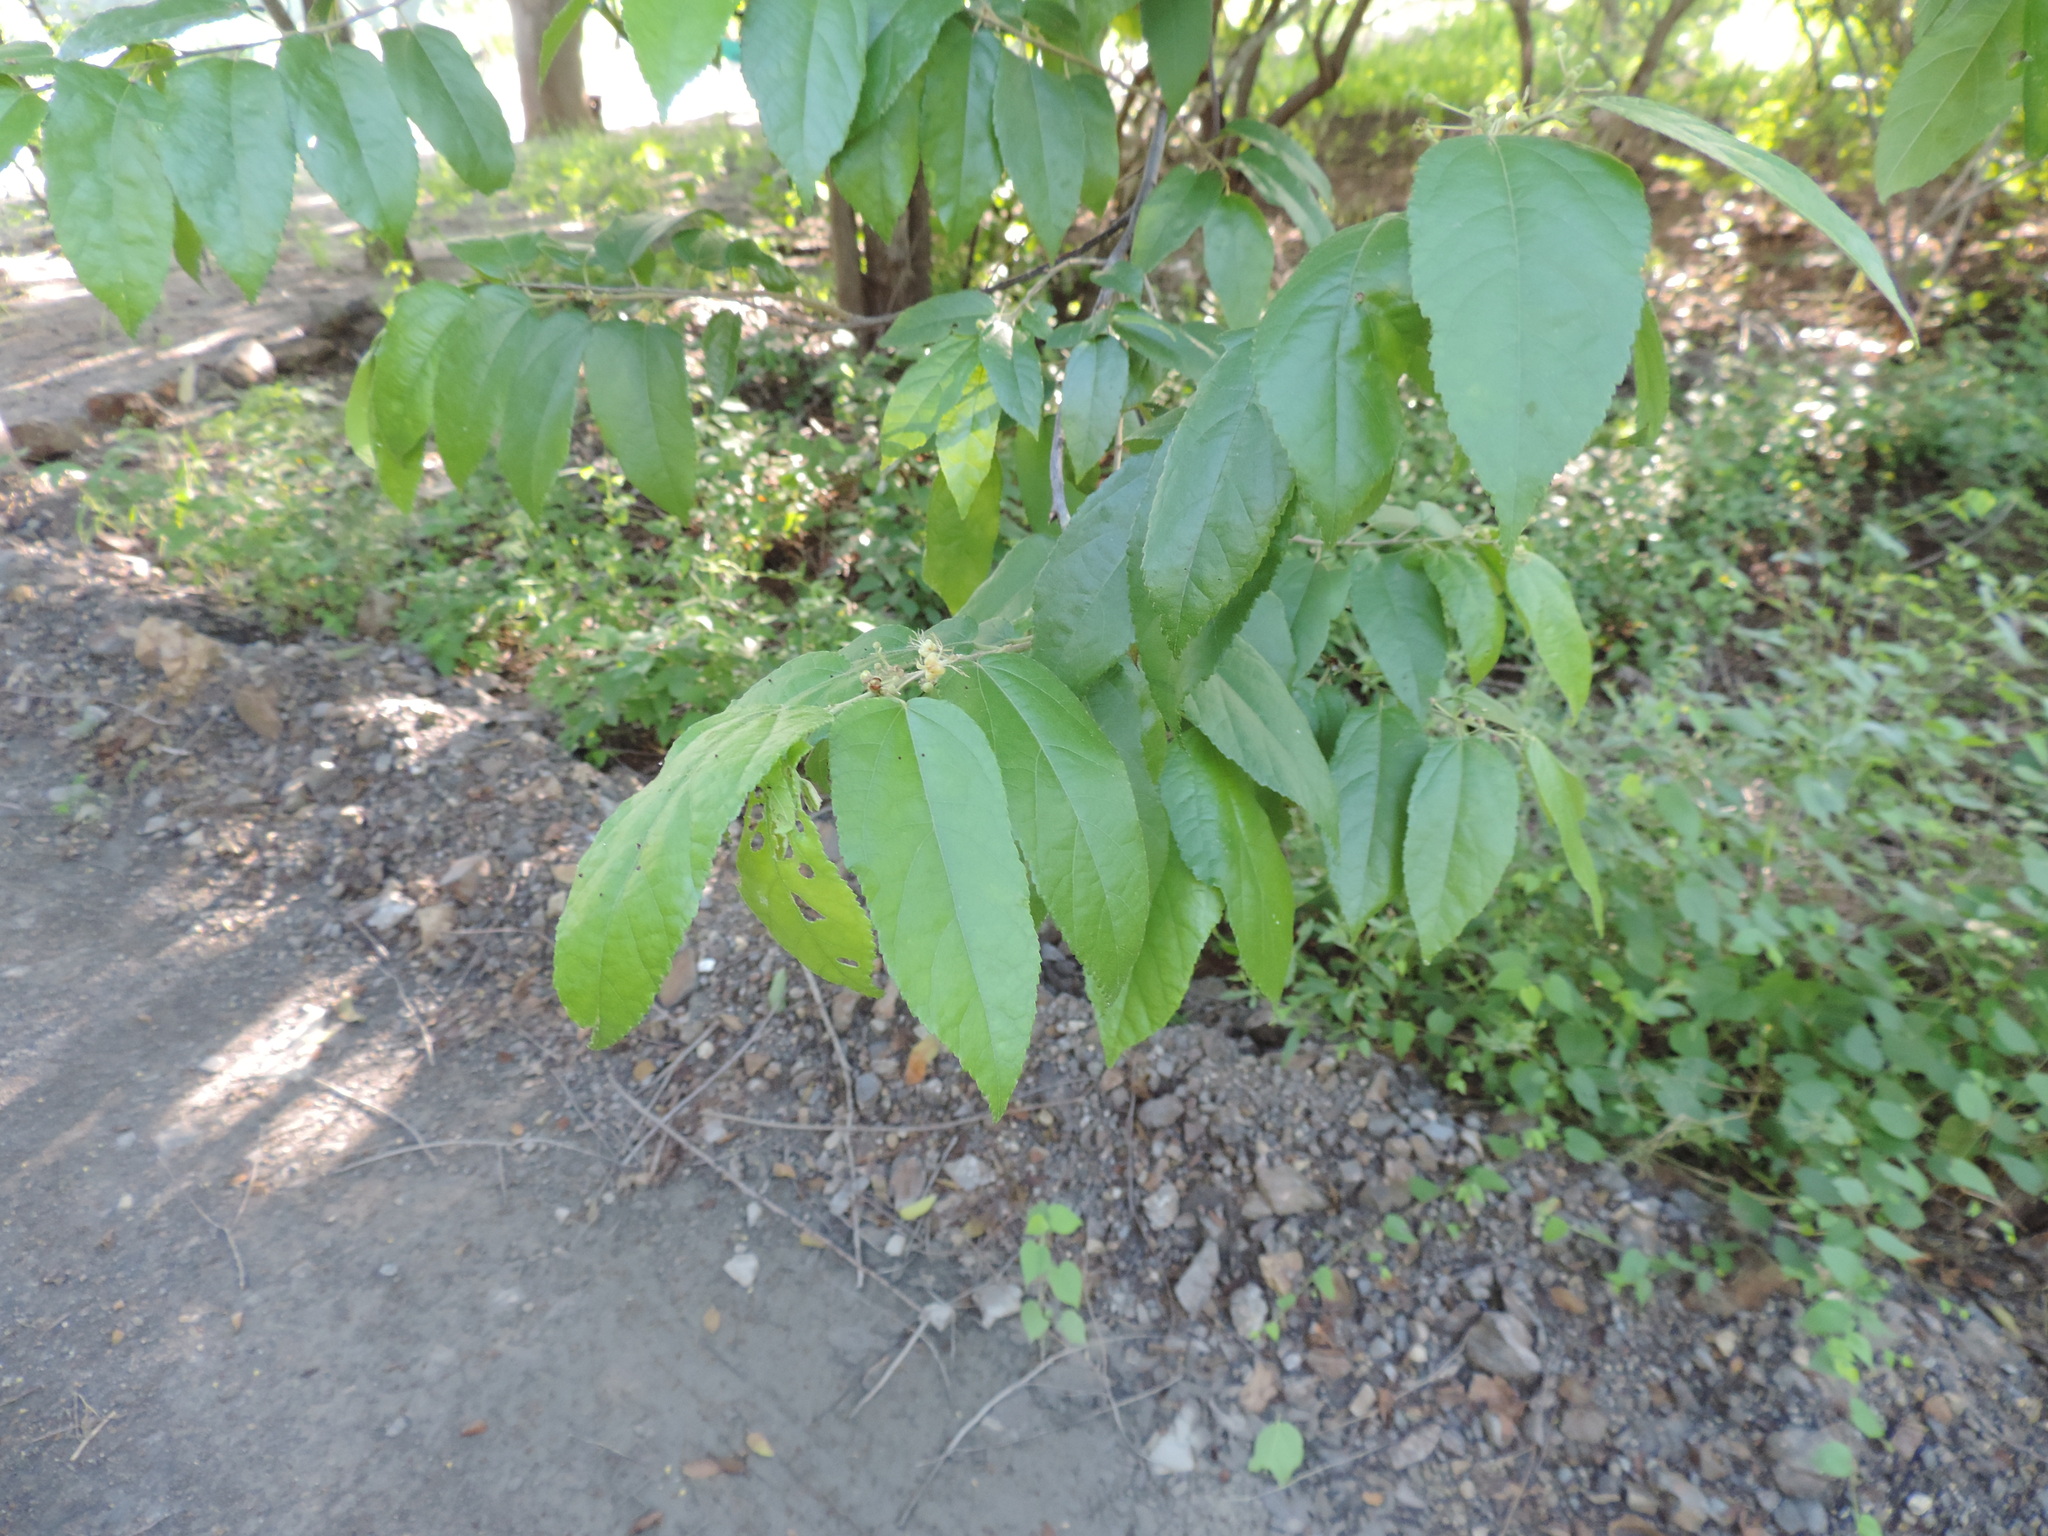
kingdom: Plantae
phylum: Tracheophyta
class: Magnoliopsida
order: Malvales
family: Malvaceae
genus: Guazuma
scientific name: Guazuma ulmifolia
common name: Bastard-cedar
